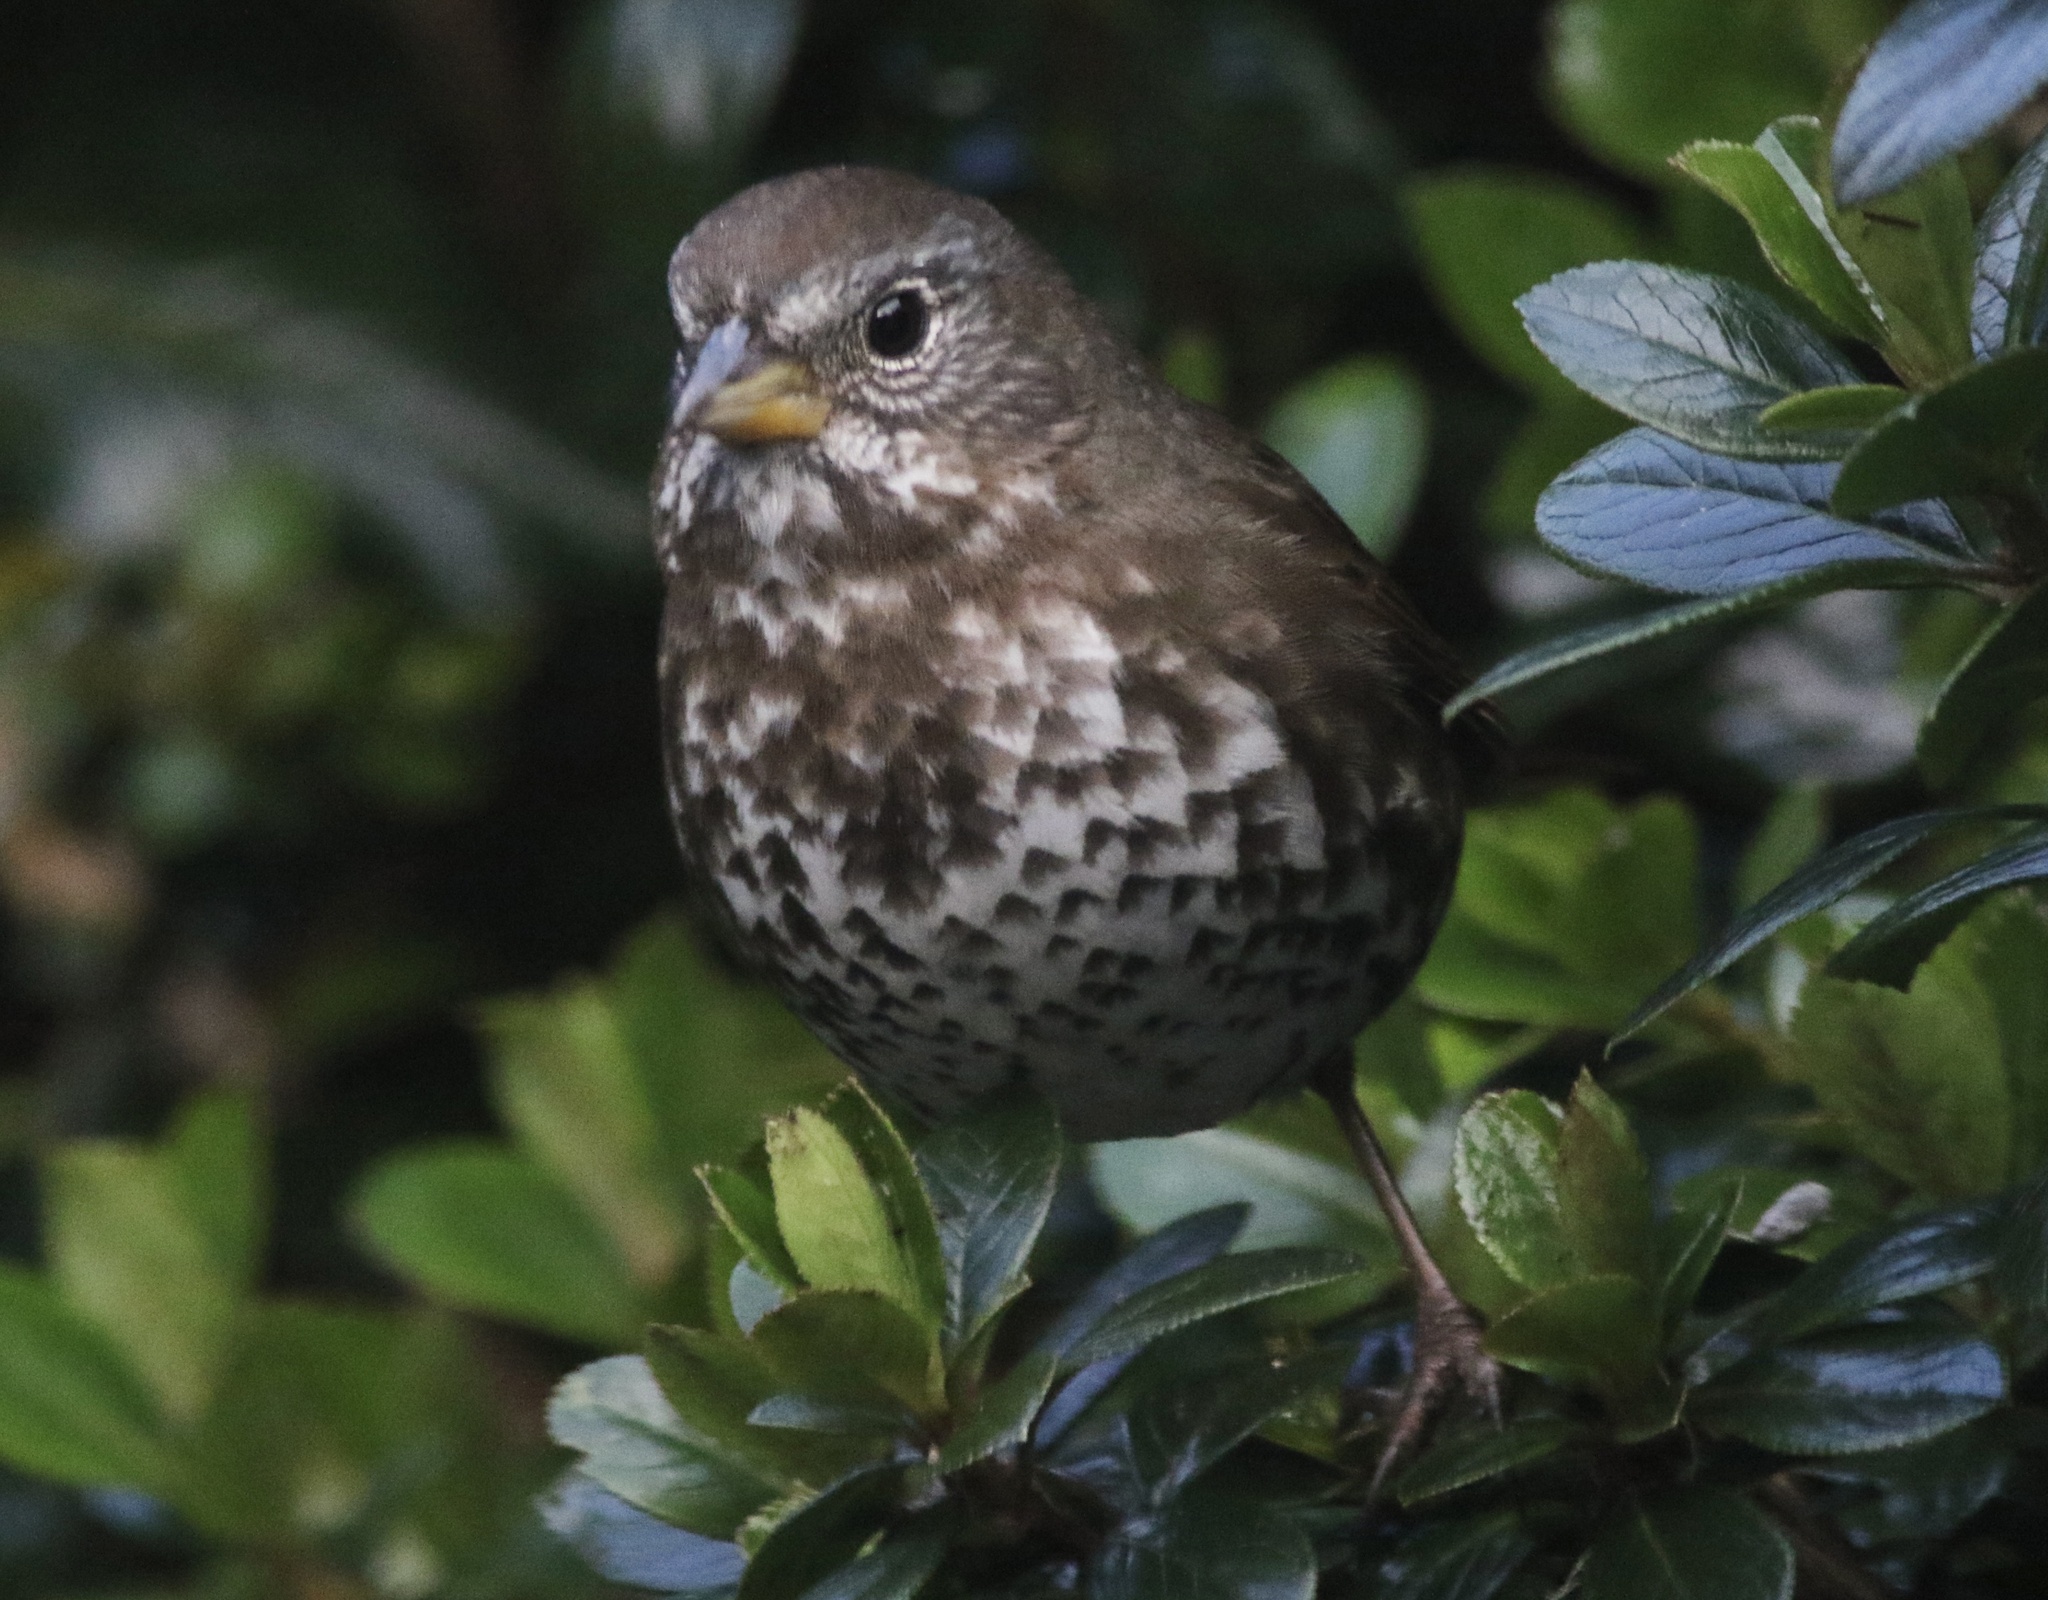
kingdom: Animalia
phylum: Chordata
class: Aves
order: Passeriformes
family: Passerellidae
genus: Passerella
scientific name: Passerella iliaca
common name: Fox sparrow
